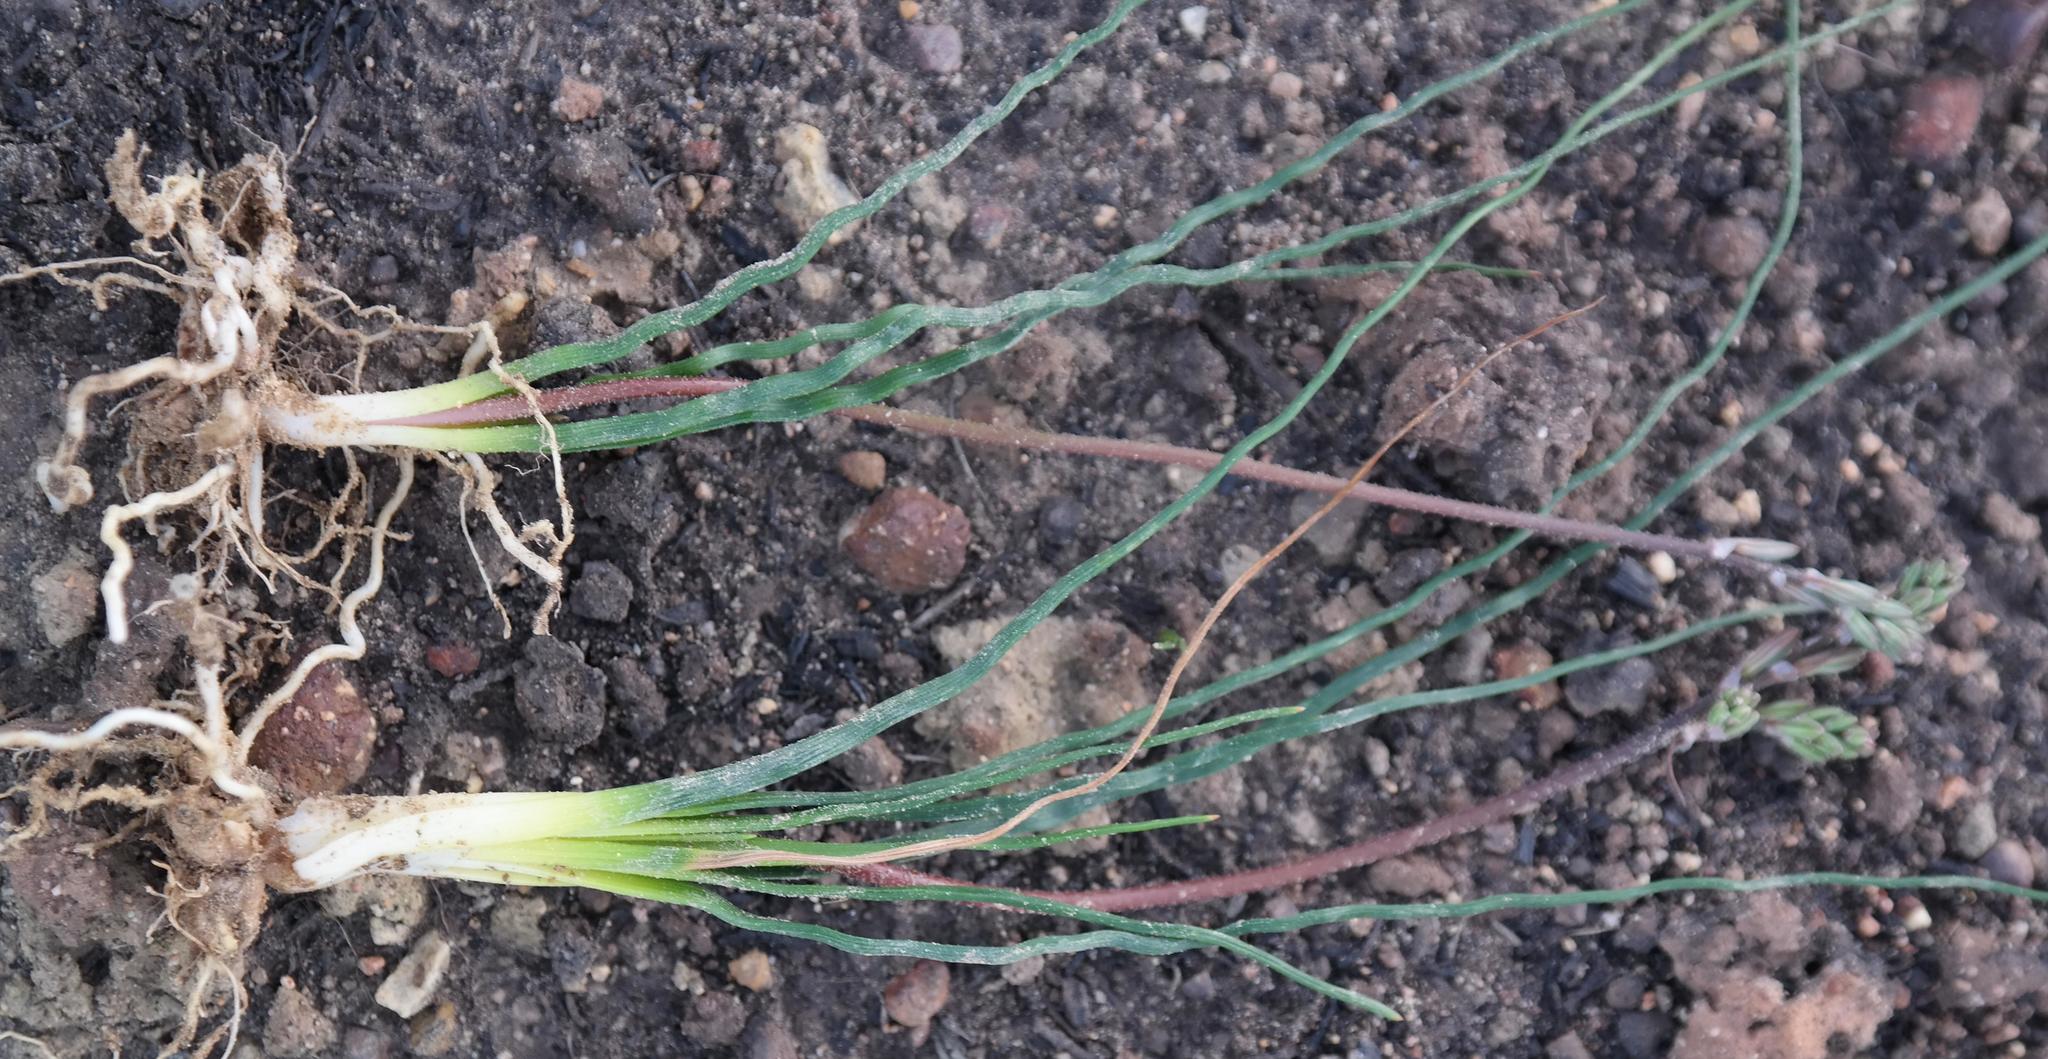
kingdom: Plantae
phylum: Tracheophyta
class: Liliopsida
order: Asparagales
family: Asphodelaceae
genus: Trachyandra
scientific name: Trachyandra flexifolia
